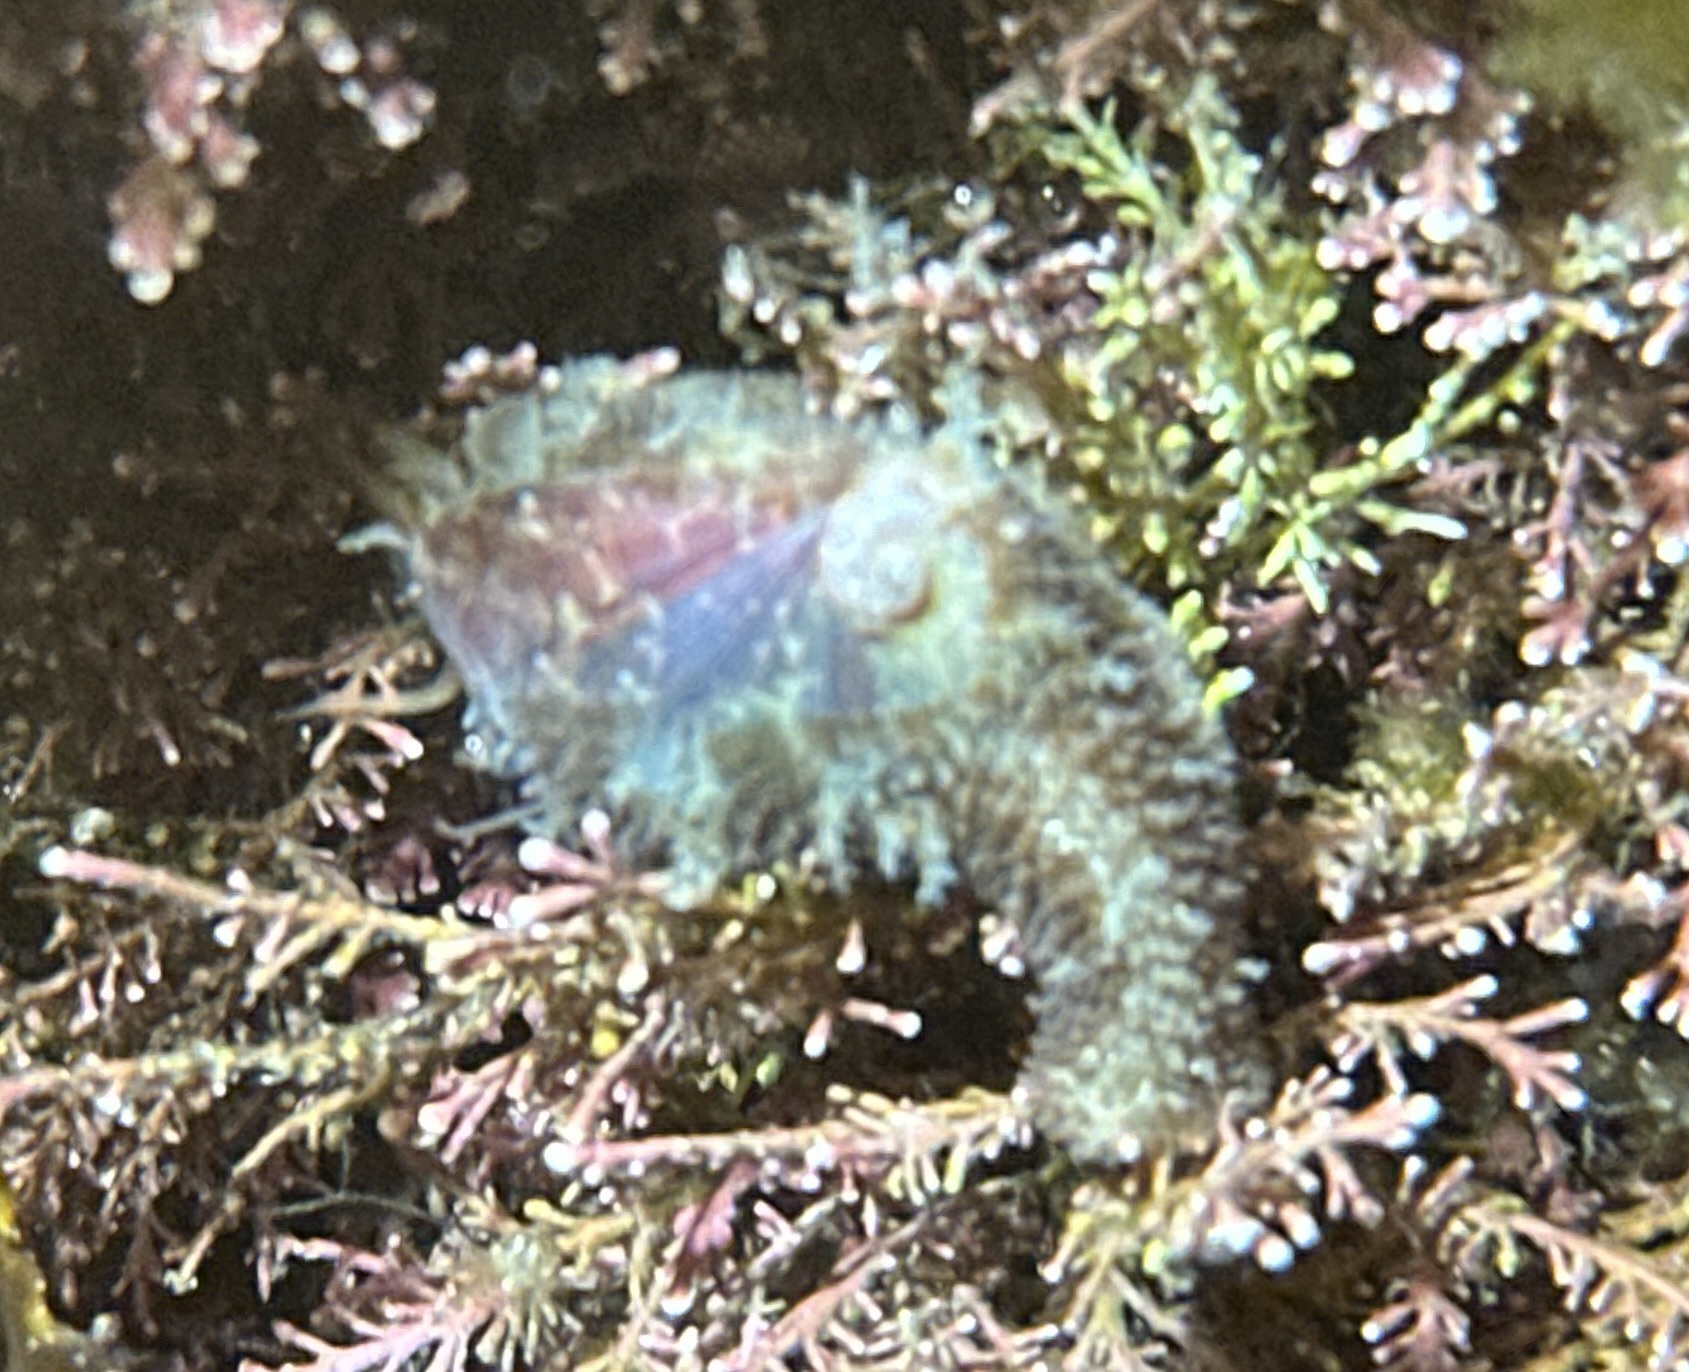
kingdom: Animalia
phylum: Mollusca
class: Gastropoda
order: Trochida
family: Trochidae
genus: Stomatella
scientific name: Stomatella impertusa
